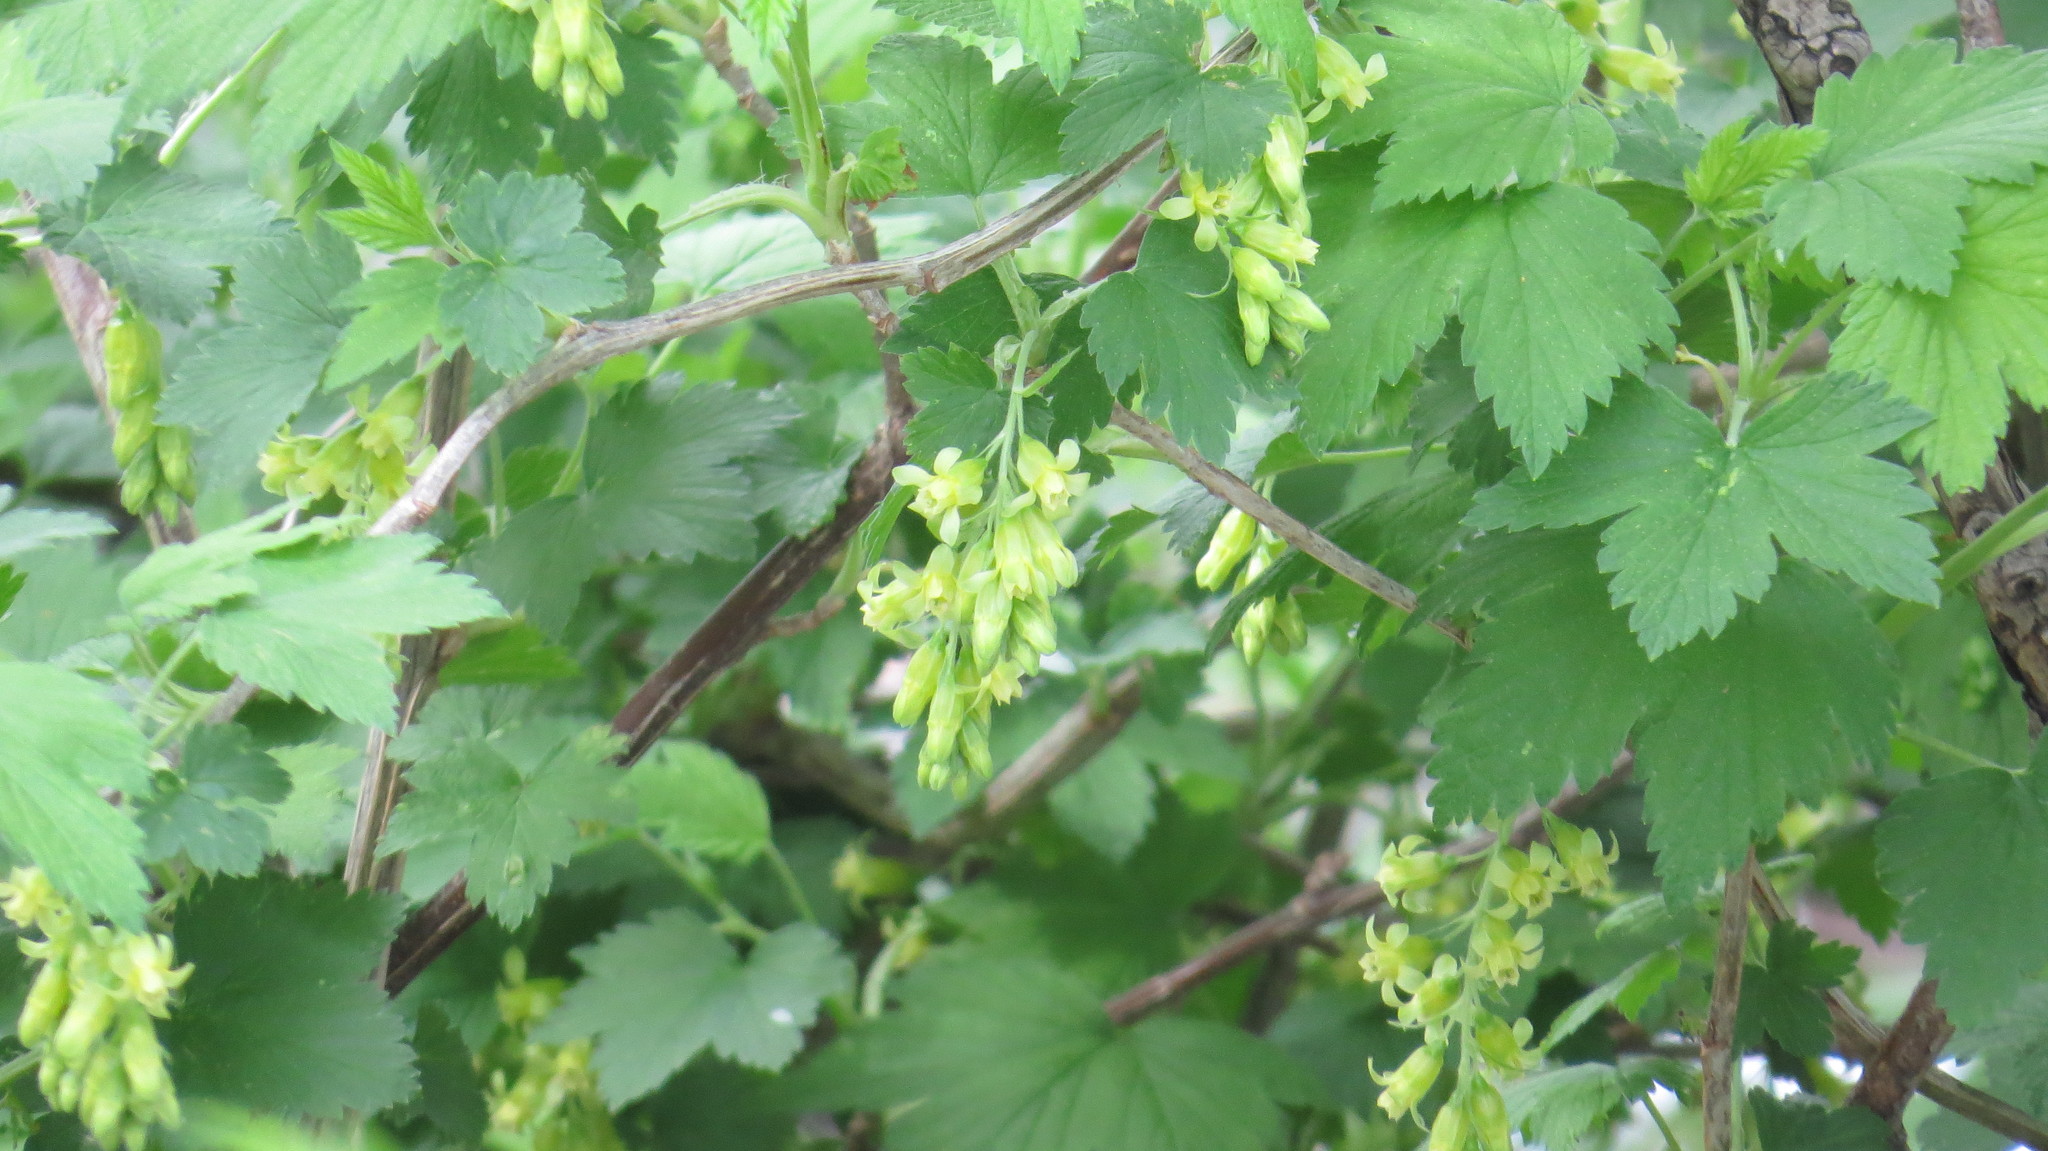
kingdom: Plantae
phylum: Tracheophyta
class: Magnoliopsida
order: Saxifragales
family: Grossulariaceae
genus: Ribes
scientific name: Ribes americanum
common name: American black currant
